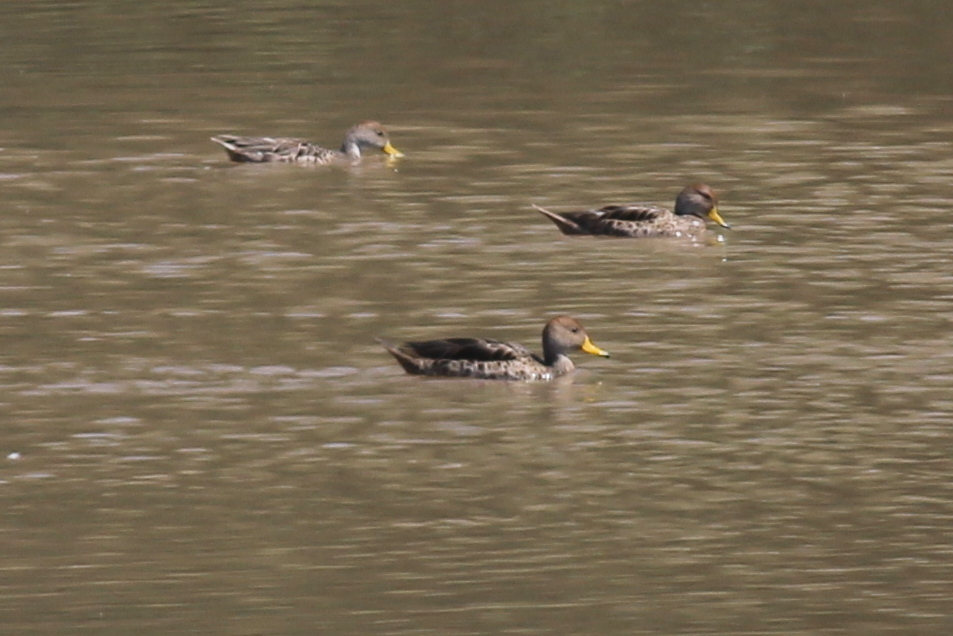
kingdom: Animalia
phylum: Chordata
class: Aves
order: Anseriformes
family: Anatidae
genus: Anas
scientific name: Anas georgica
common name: Yellow-billed pintail
